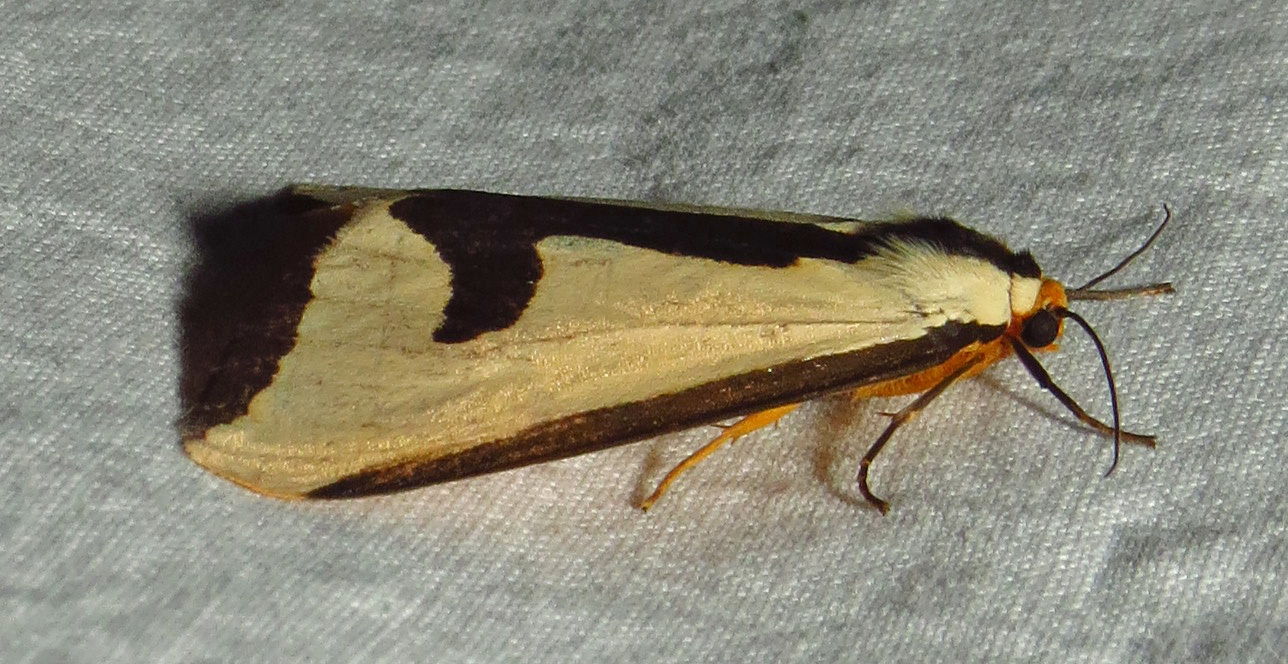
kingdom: Animalia
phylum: Arthropoda
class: Insecta
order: Lepidoptera
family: Erebidae
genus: Haploa
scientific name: Haploa clymene
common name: Clymene moth
